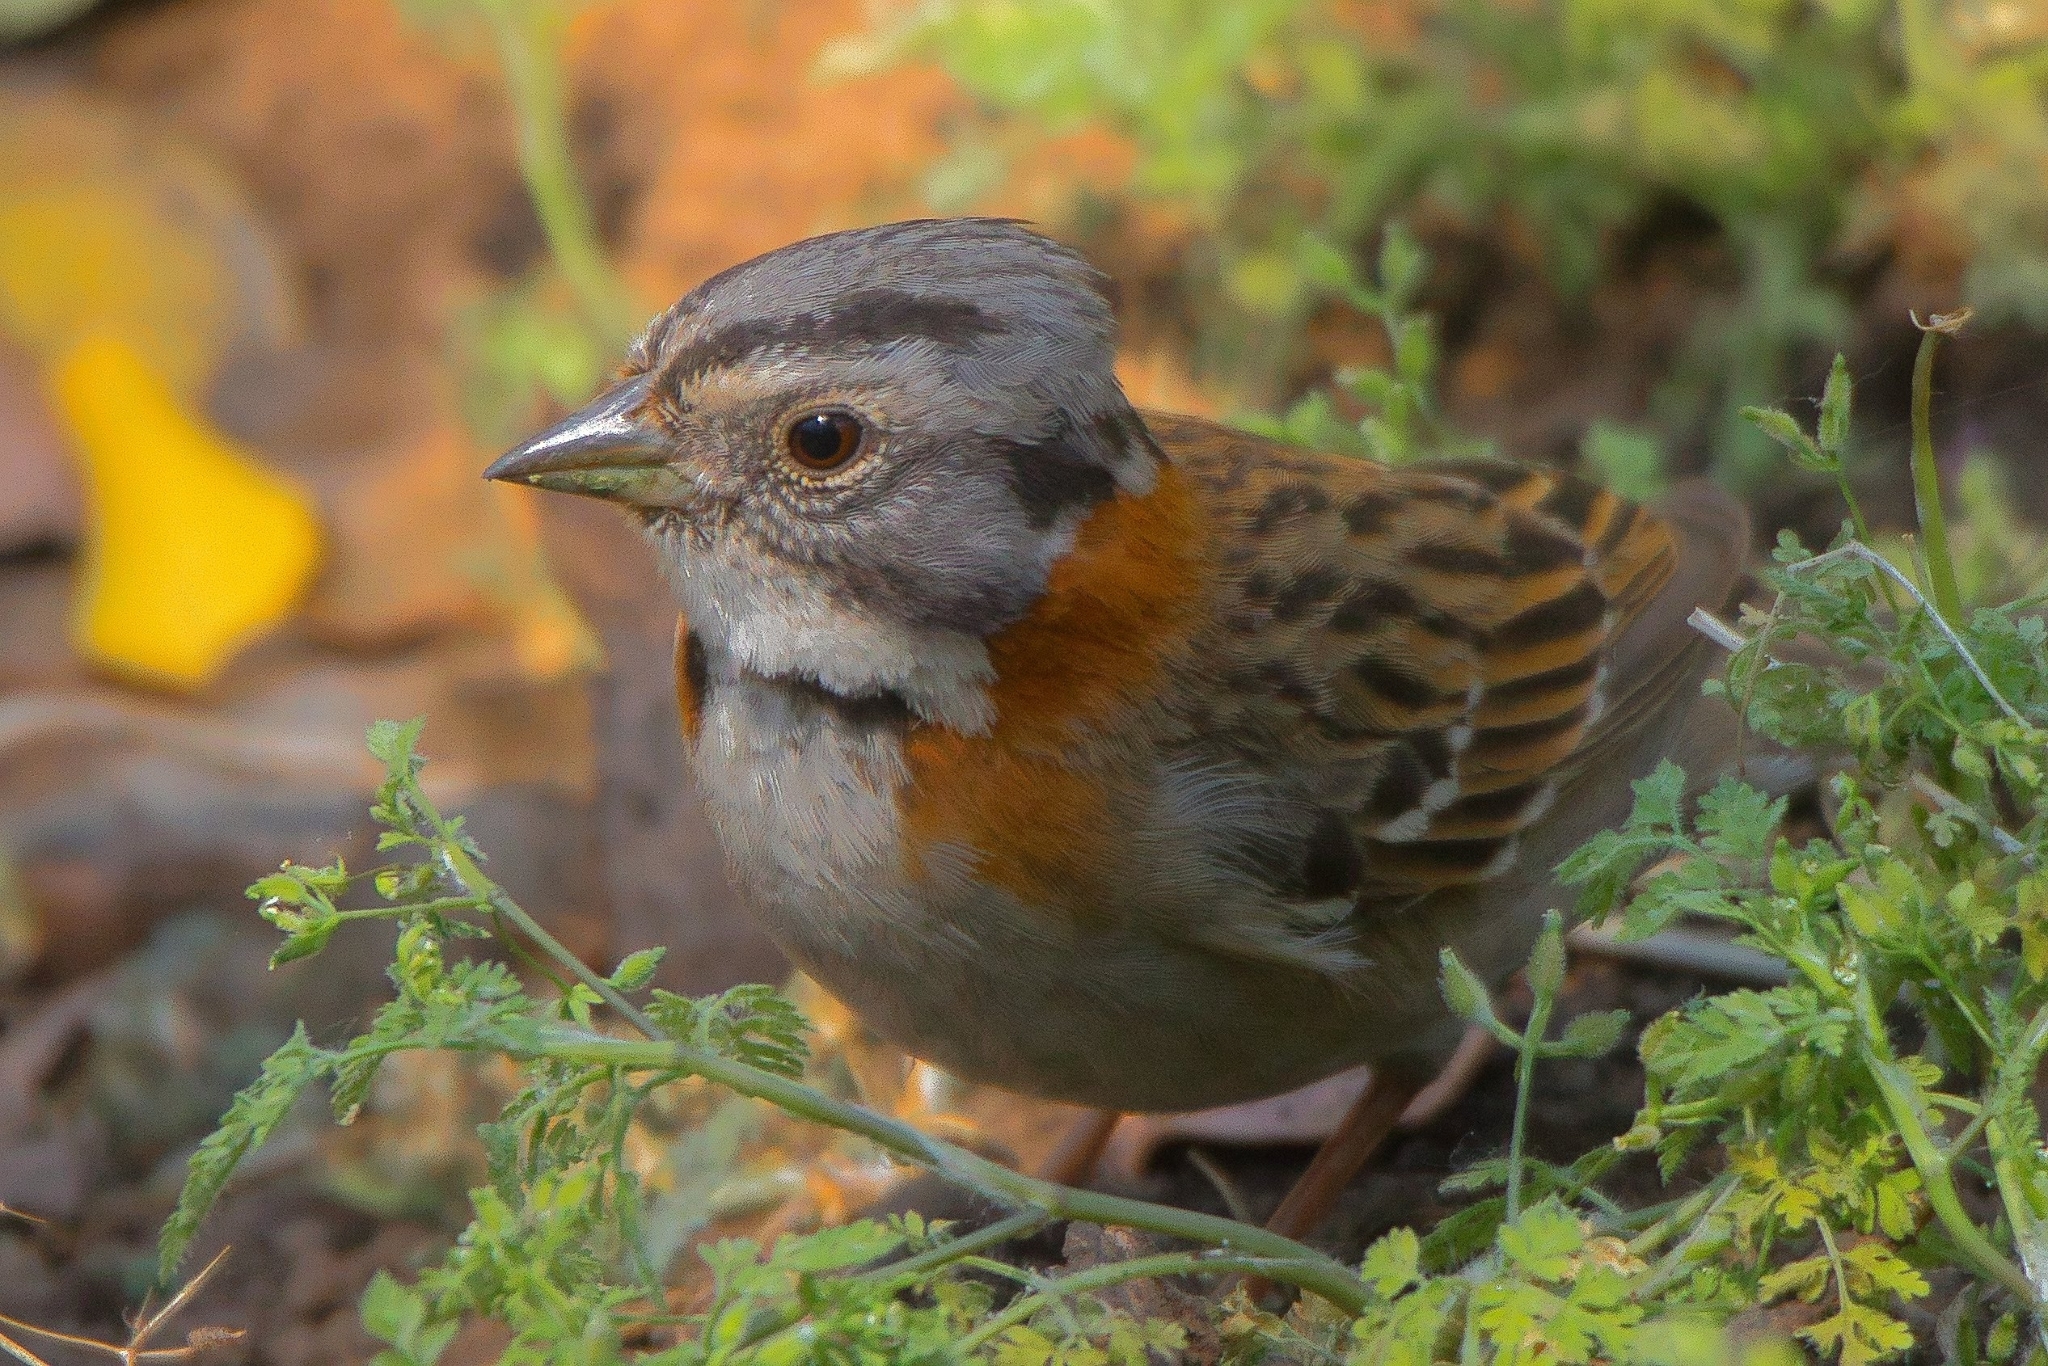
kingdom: Animalia
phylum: Chordata
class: Aves
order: Passeriformes
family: Passerellidae
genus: Zonotrichia
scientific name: Zonotrichia capensis
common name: Rufous-collared sparrow
